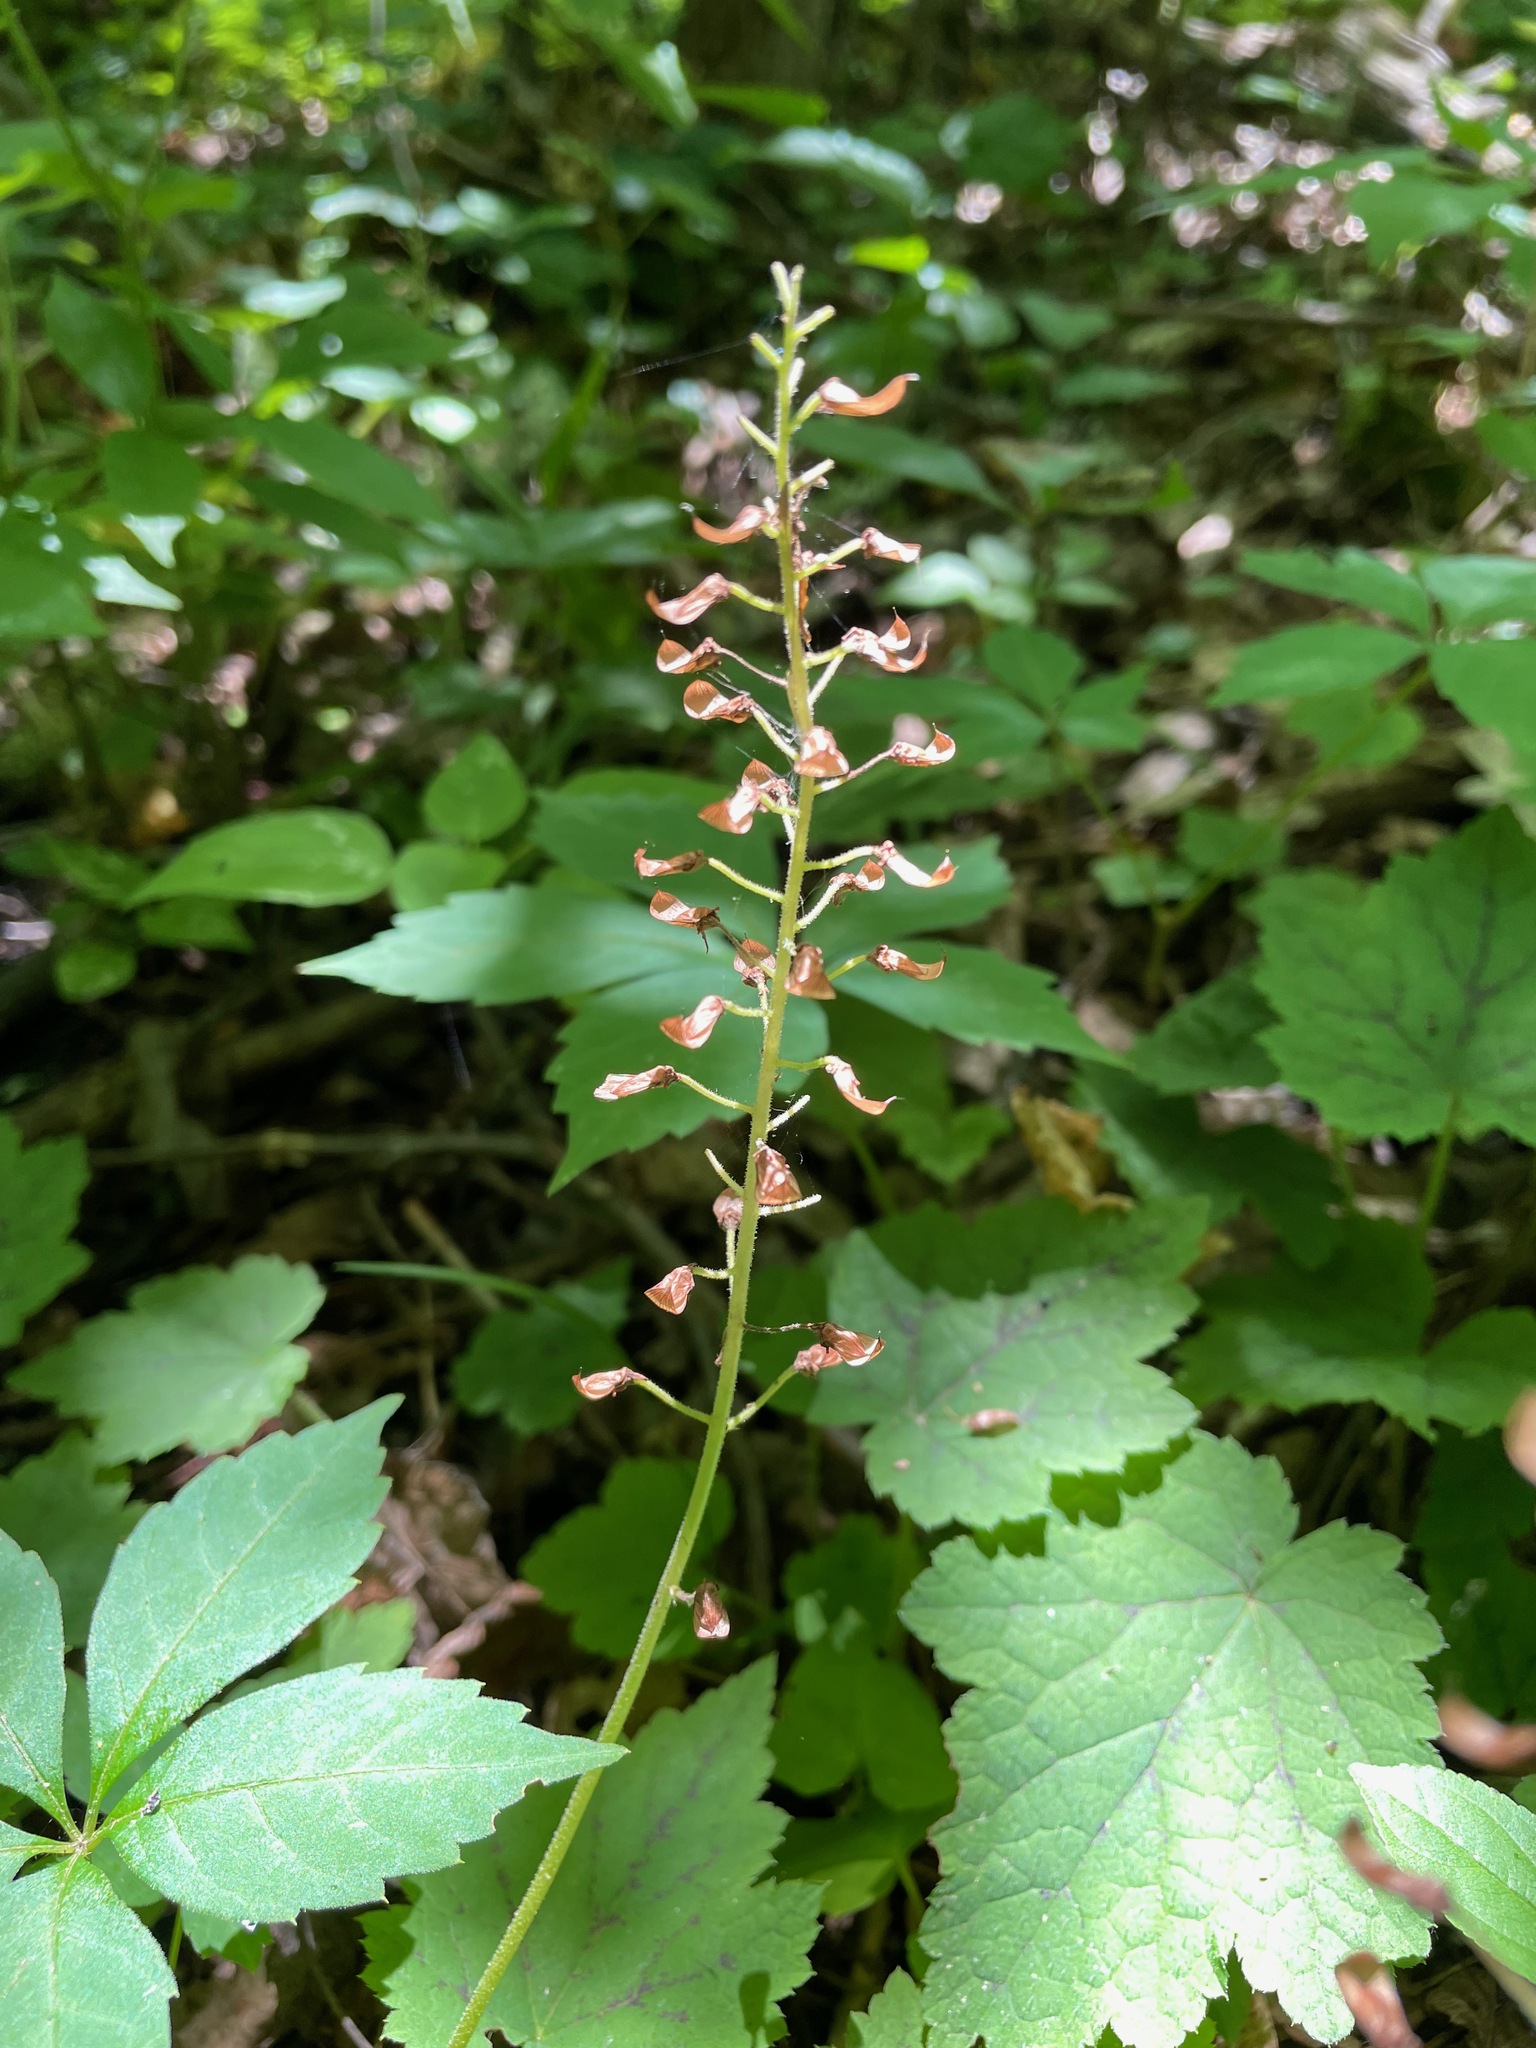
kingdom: Plantae
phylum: Tracheophyta
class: Magnoliopsida
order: Saxifragales
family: Saxifragaceae
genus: Tiarella
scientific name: Tiarella stolonifera
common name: Stoloniferous foamflower
